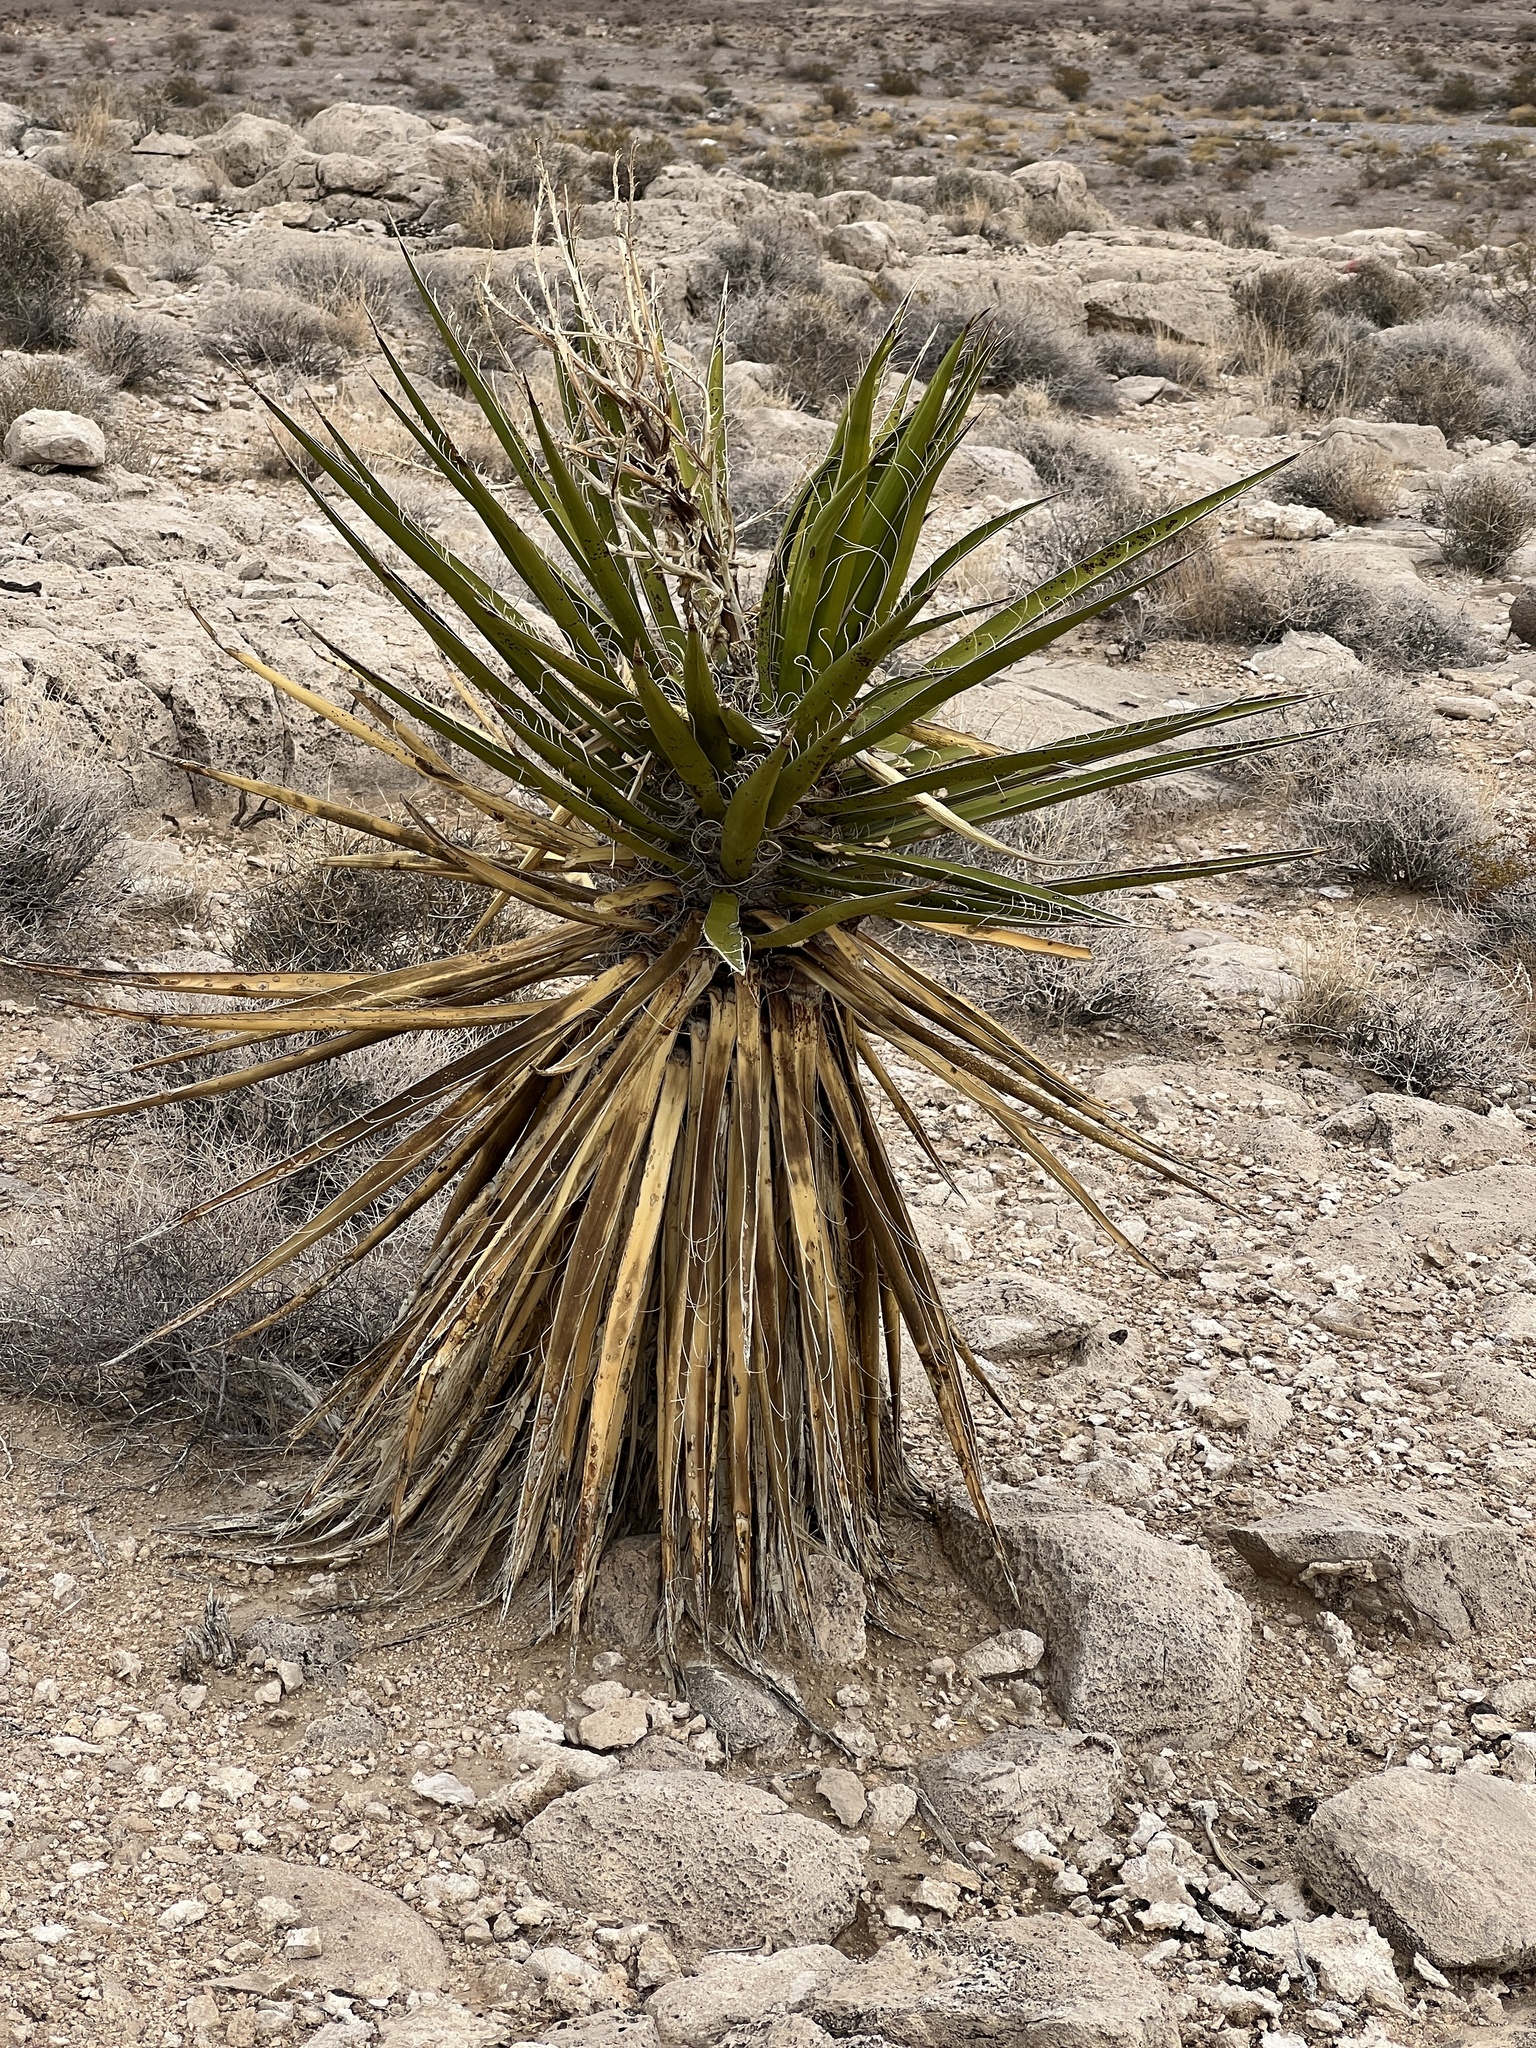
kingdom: Plantae
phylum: Tracheophyta
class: Liliopsida
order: Asparagales
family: Asparagaceae
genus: Yucca
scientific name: Yucca schidigera
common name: Mojave yucca
